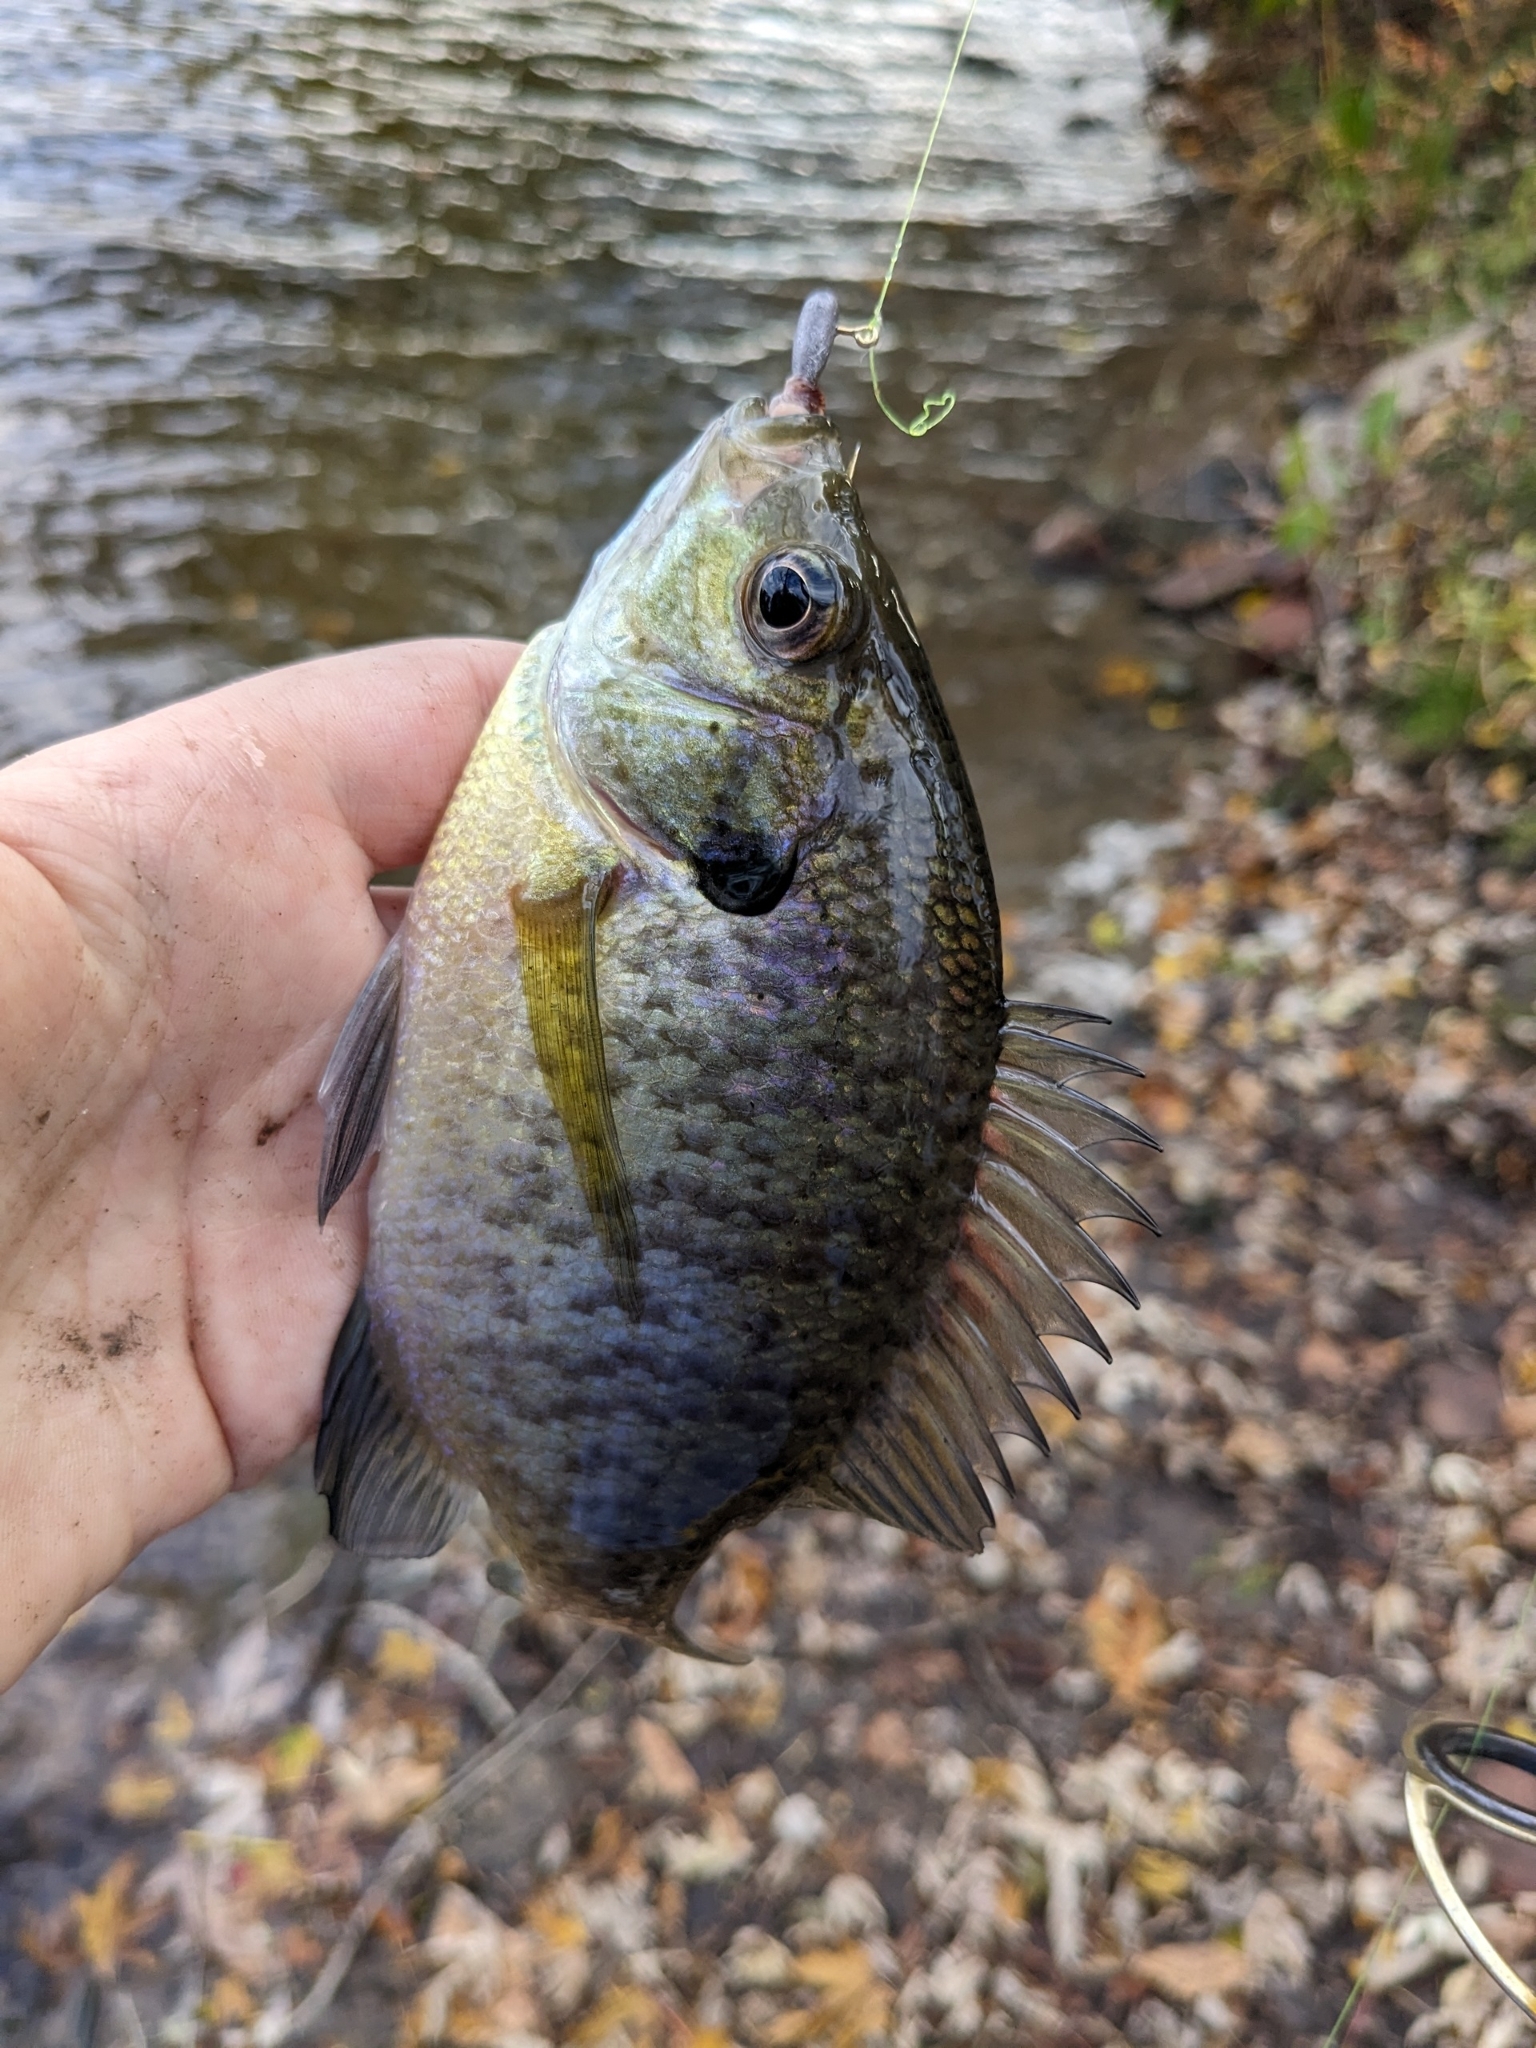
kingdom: Animalia
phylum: Chordata
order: Perciformes
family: Centrarchidae
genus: Lepomis
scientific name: Lepomis macrochirus
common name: Bluegill
